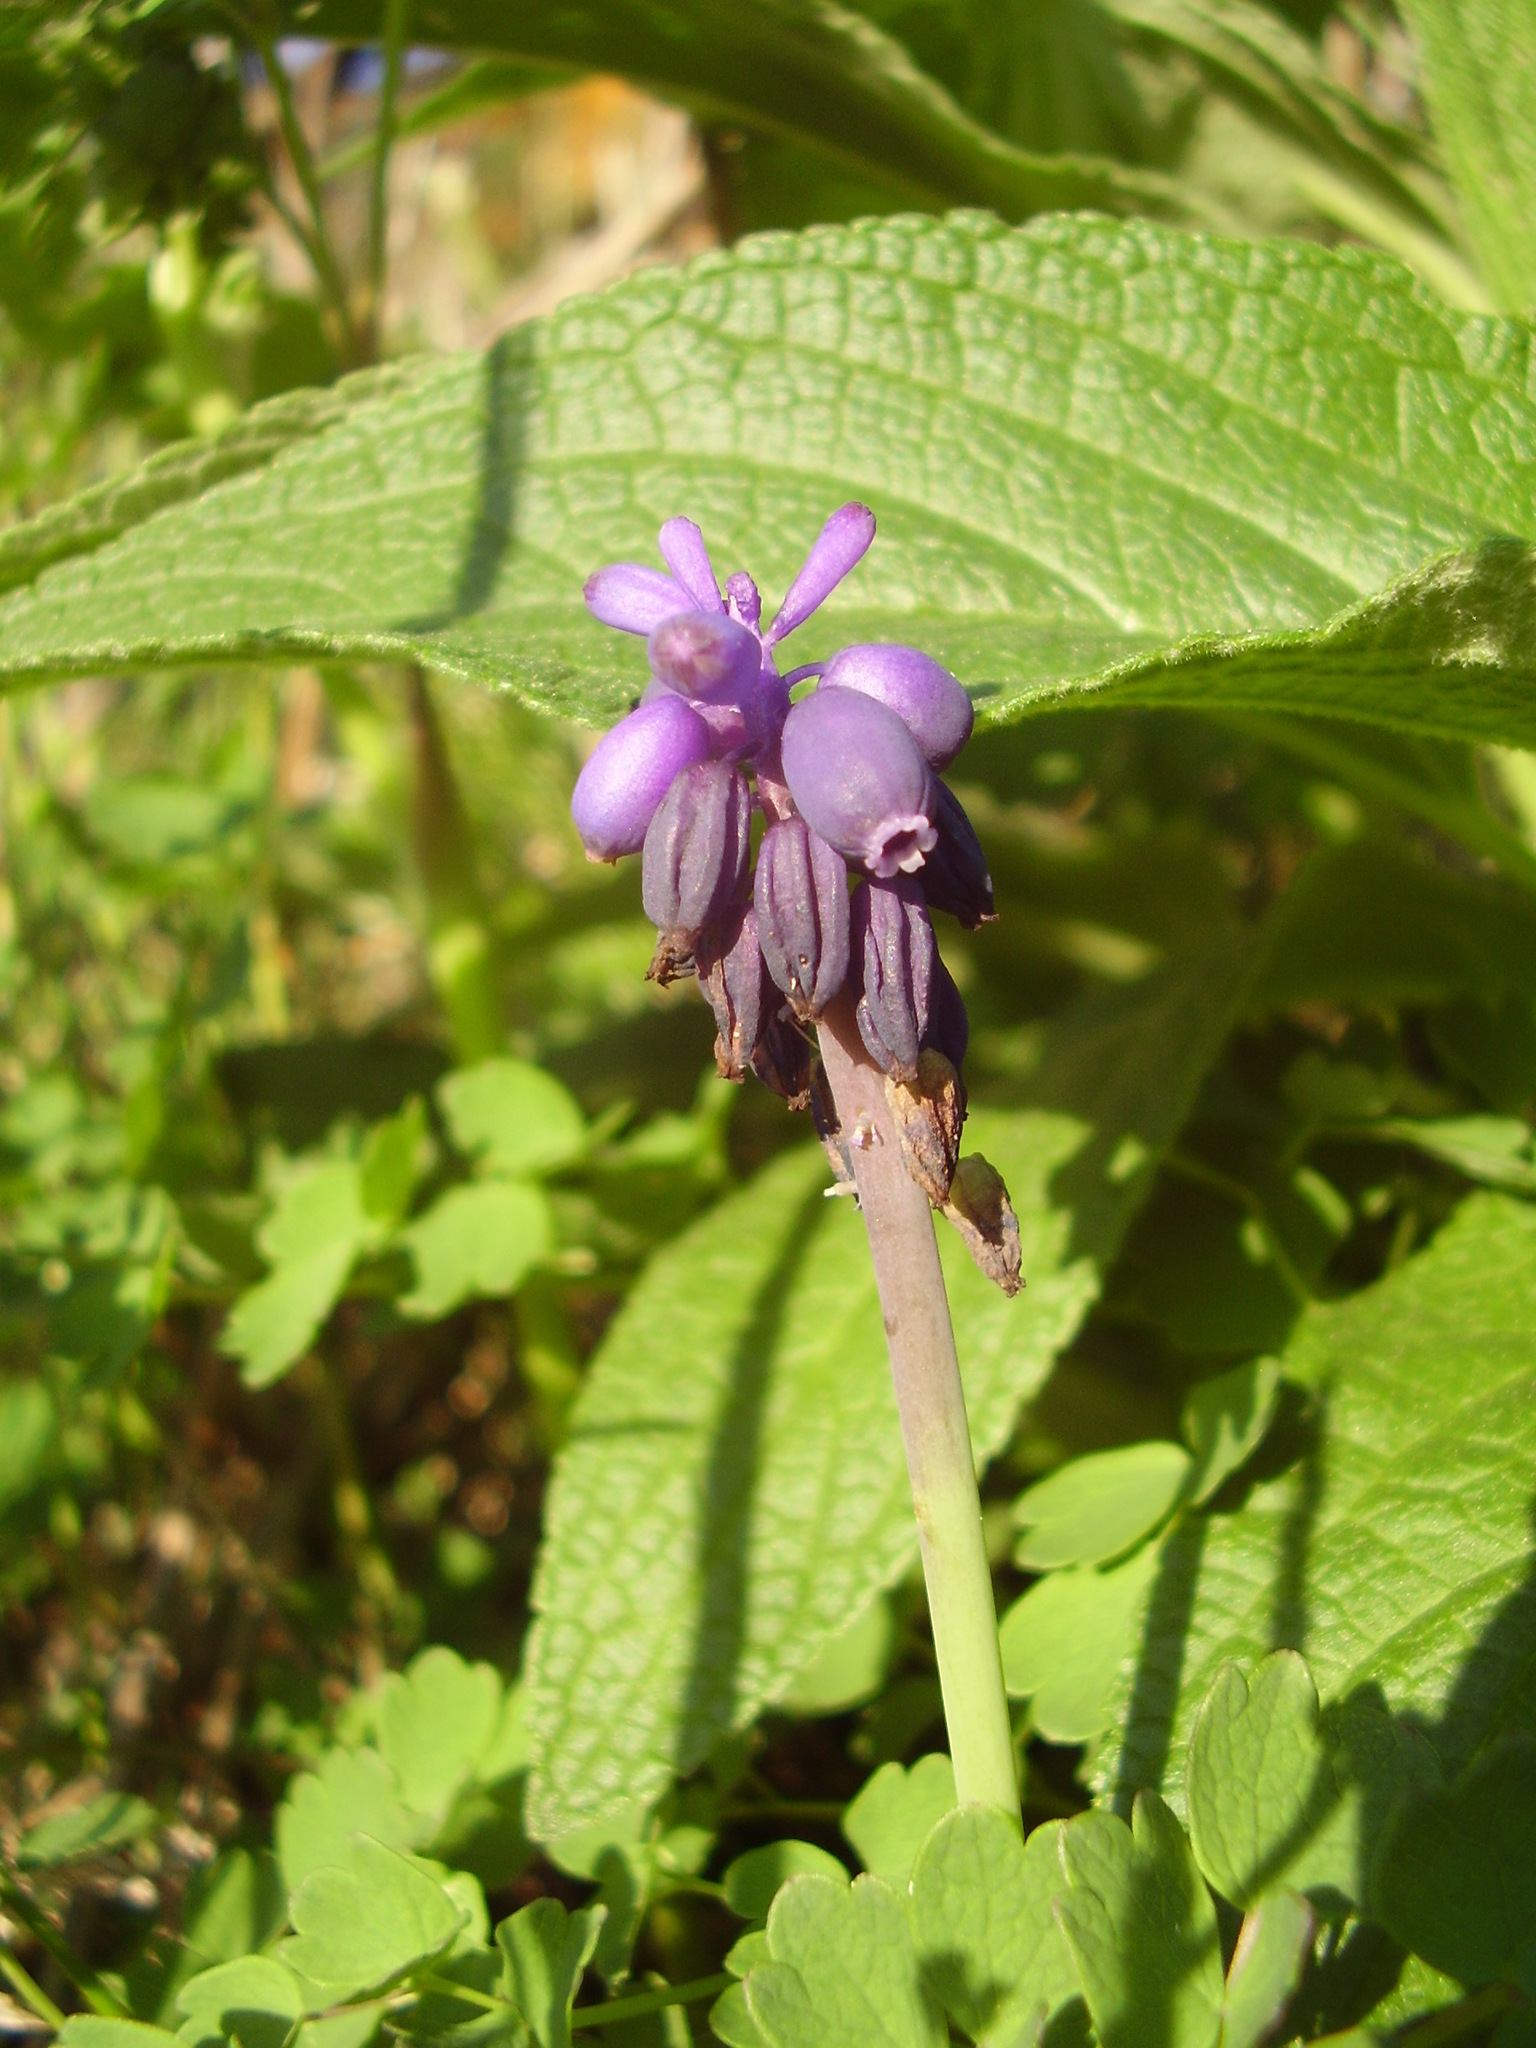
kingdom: Plantae
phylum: Tracheophyta
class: Liliopsida
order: Asparagales
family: Asparagaceae
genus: Muscari
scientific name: Muscari neglectum
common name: Grape-hyacinth
